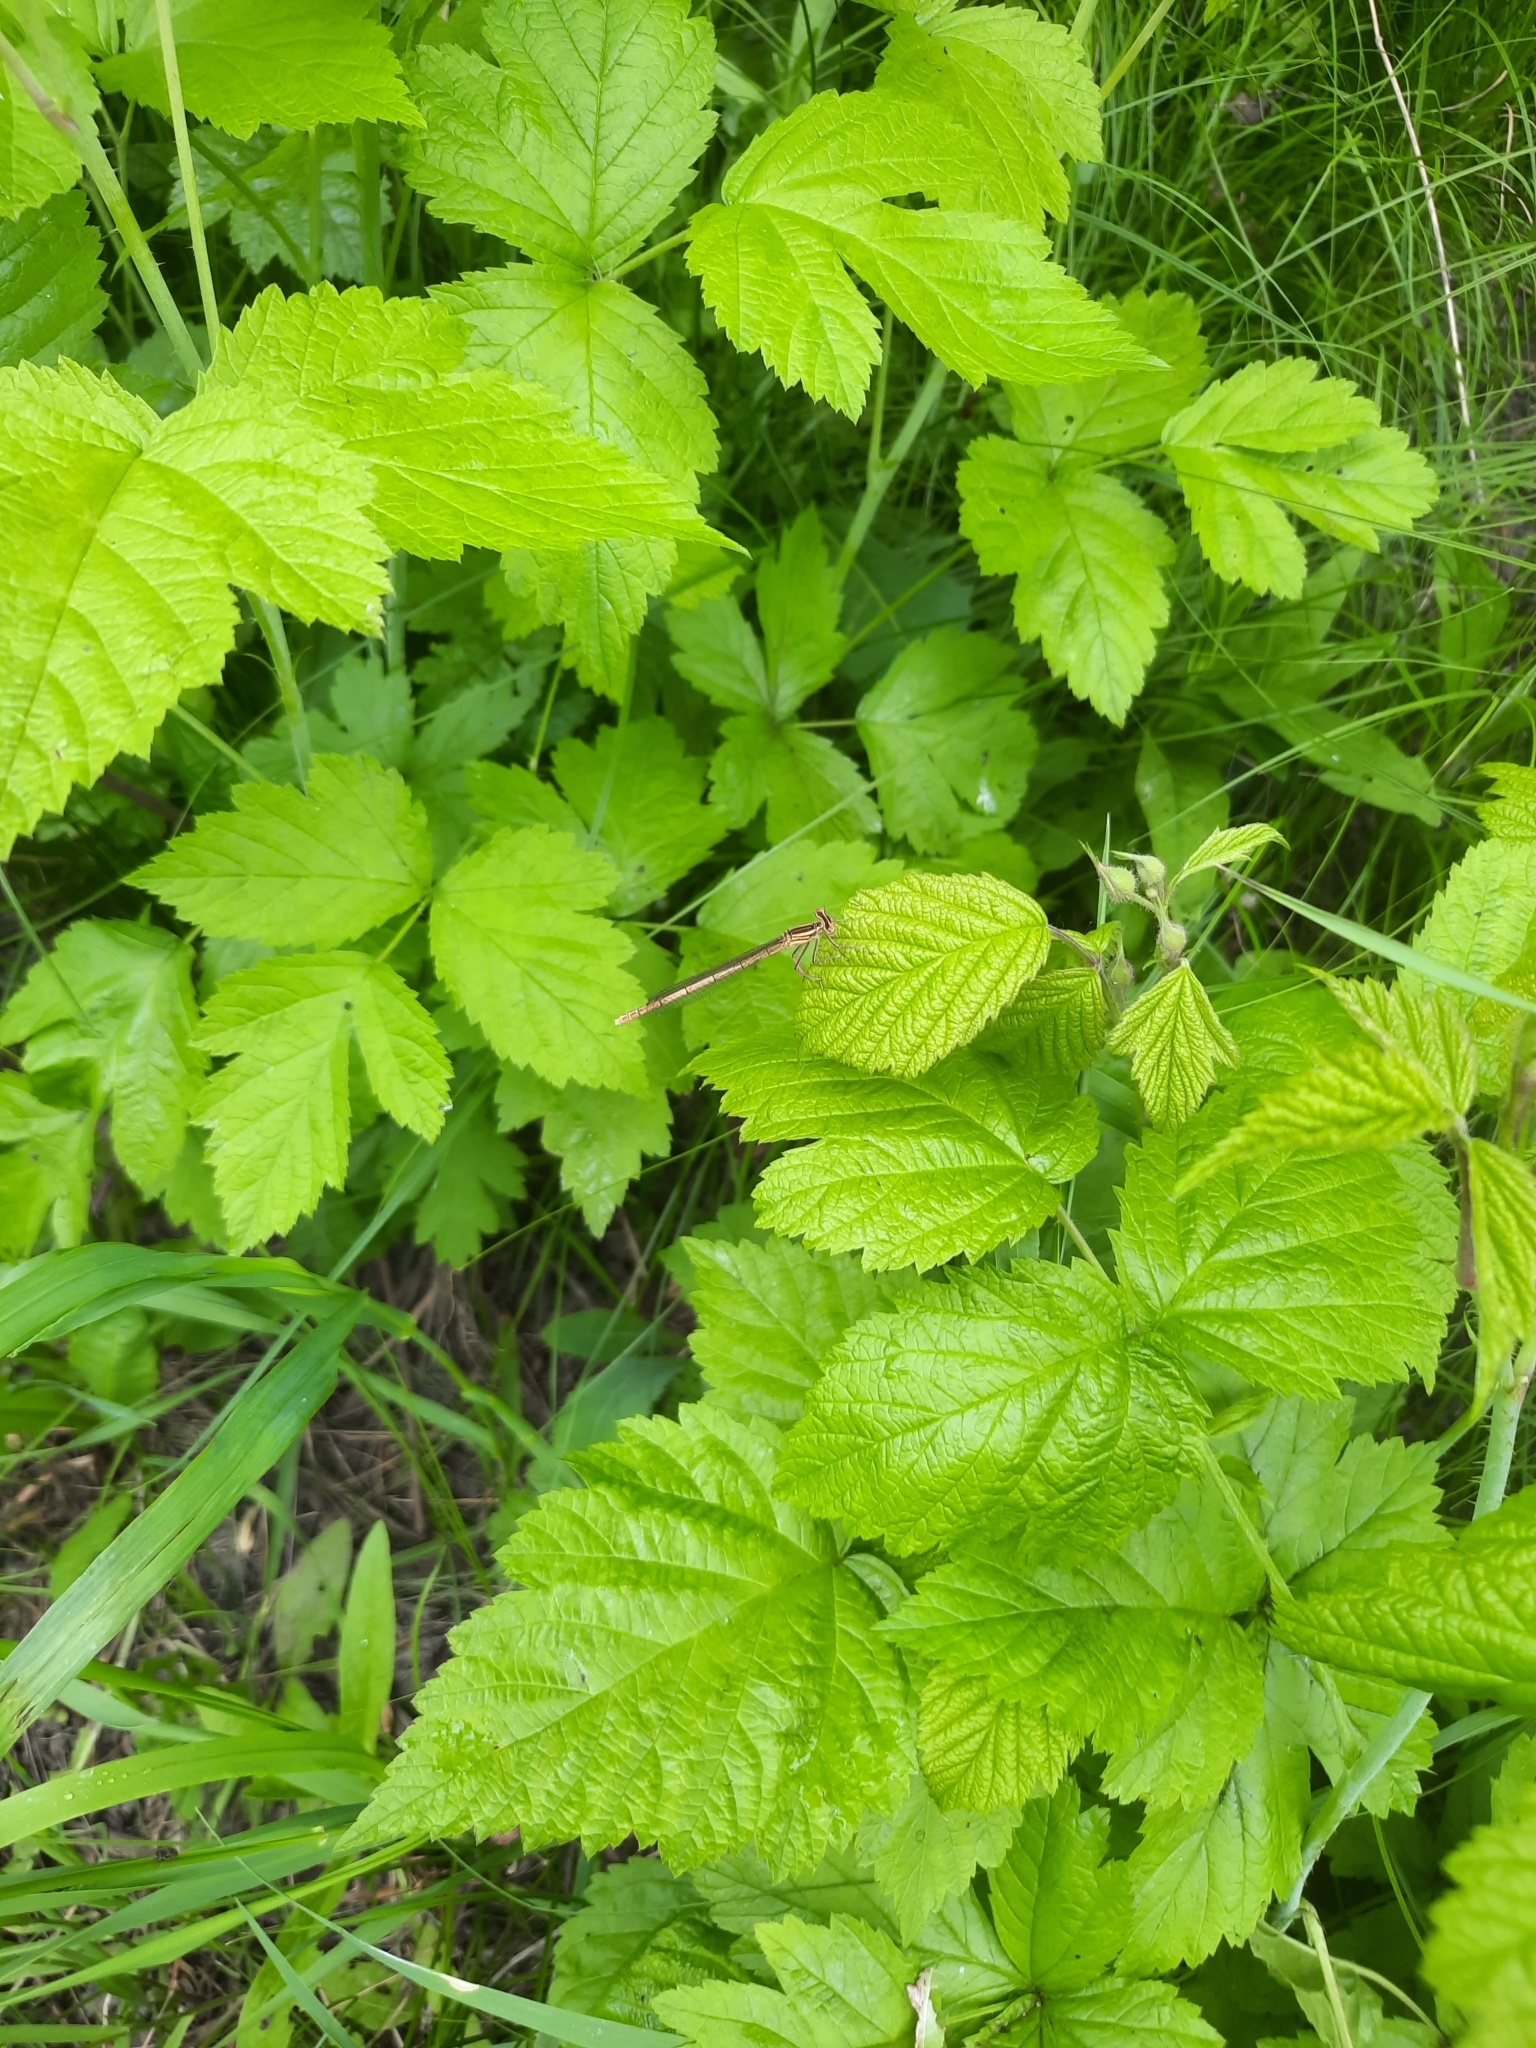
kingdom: Animalia
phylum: Arthropoda
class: Insecta
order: Odonata
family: Platycnemididae
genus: Platycnemis
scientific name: Platycnemis pennipes
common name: White-legged damselfly
